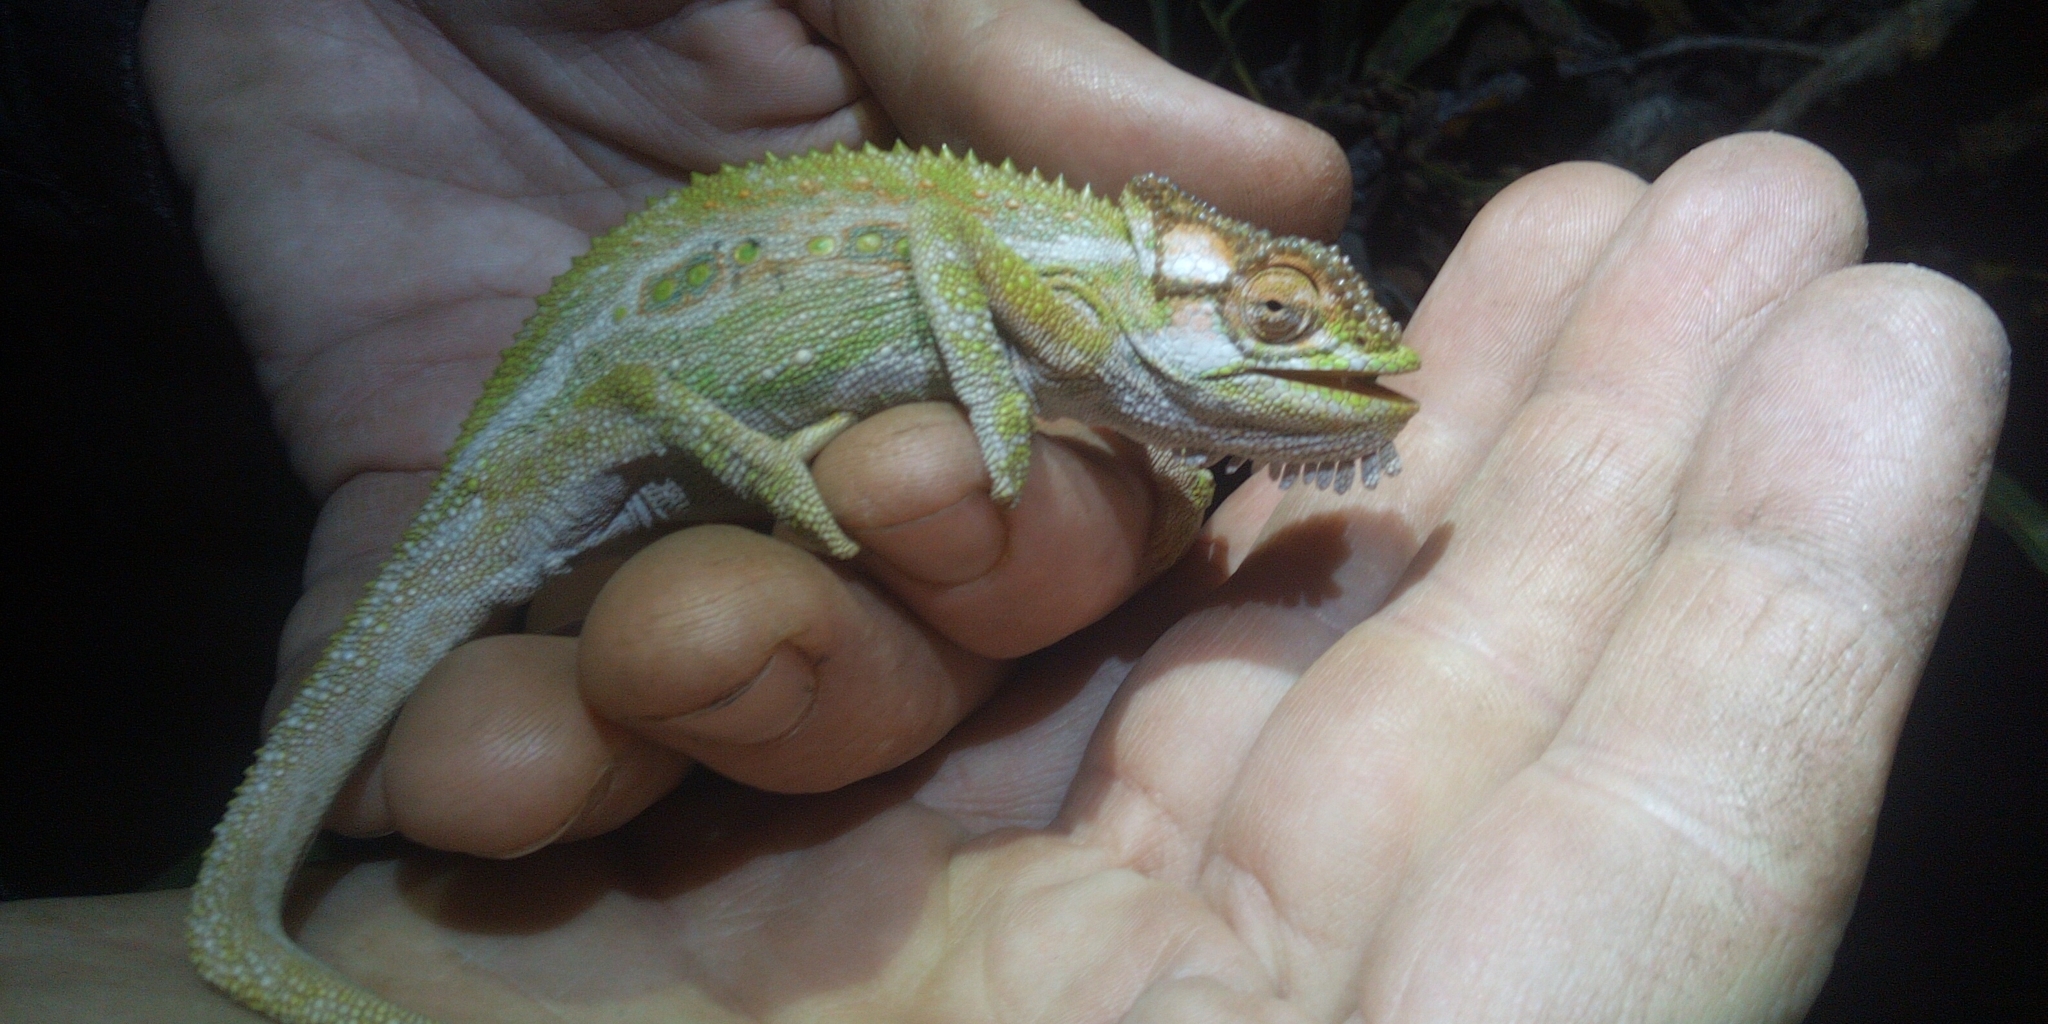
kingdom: Animalia
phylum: Chordata
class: Squamata
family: Chamaeleonidae
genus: Bradypodion
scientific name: Bradypodion pumilum
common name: Cape dwarf chameleon
